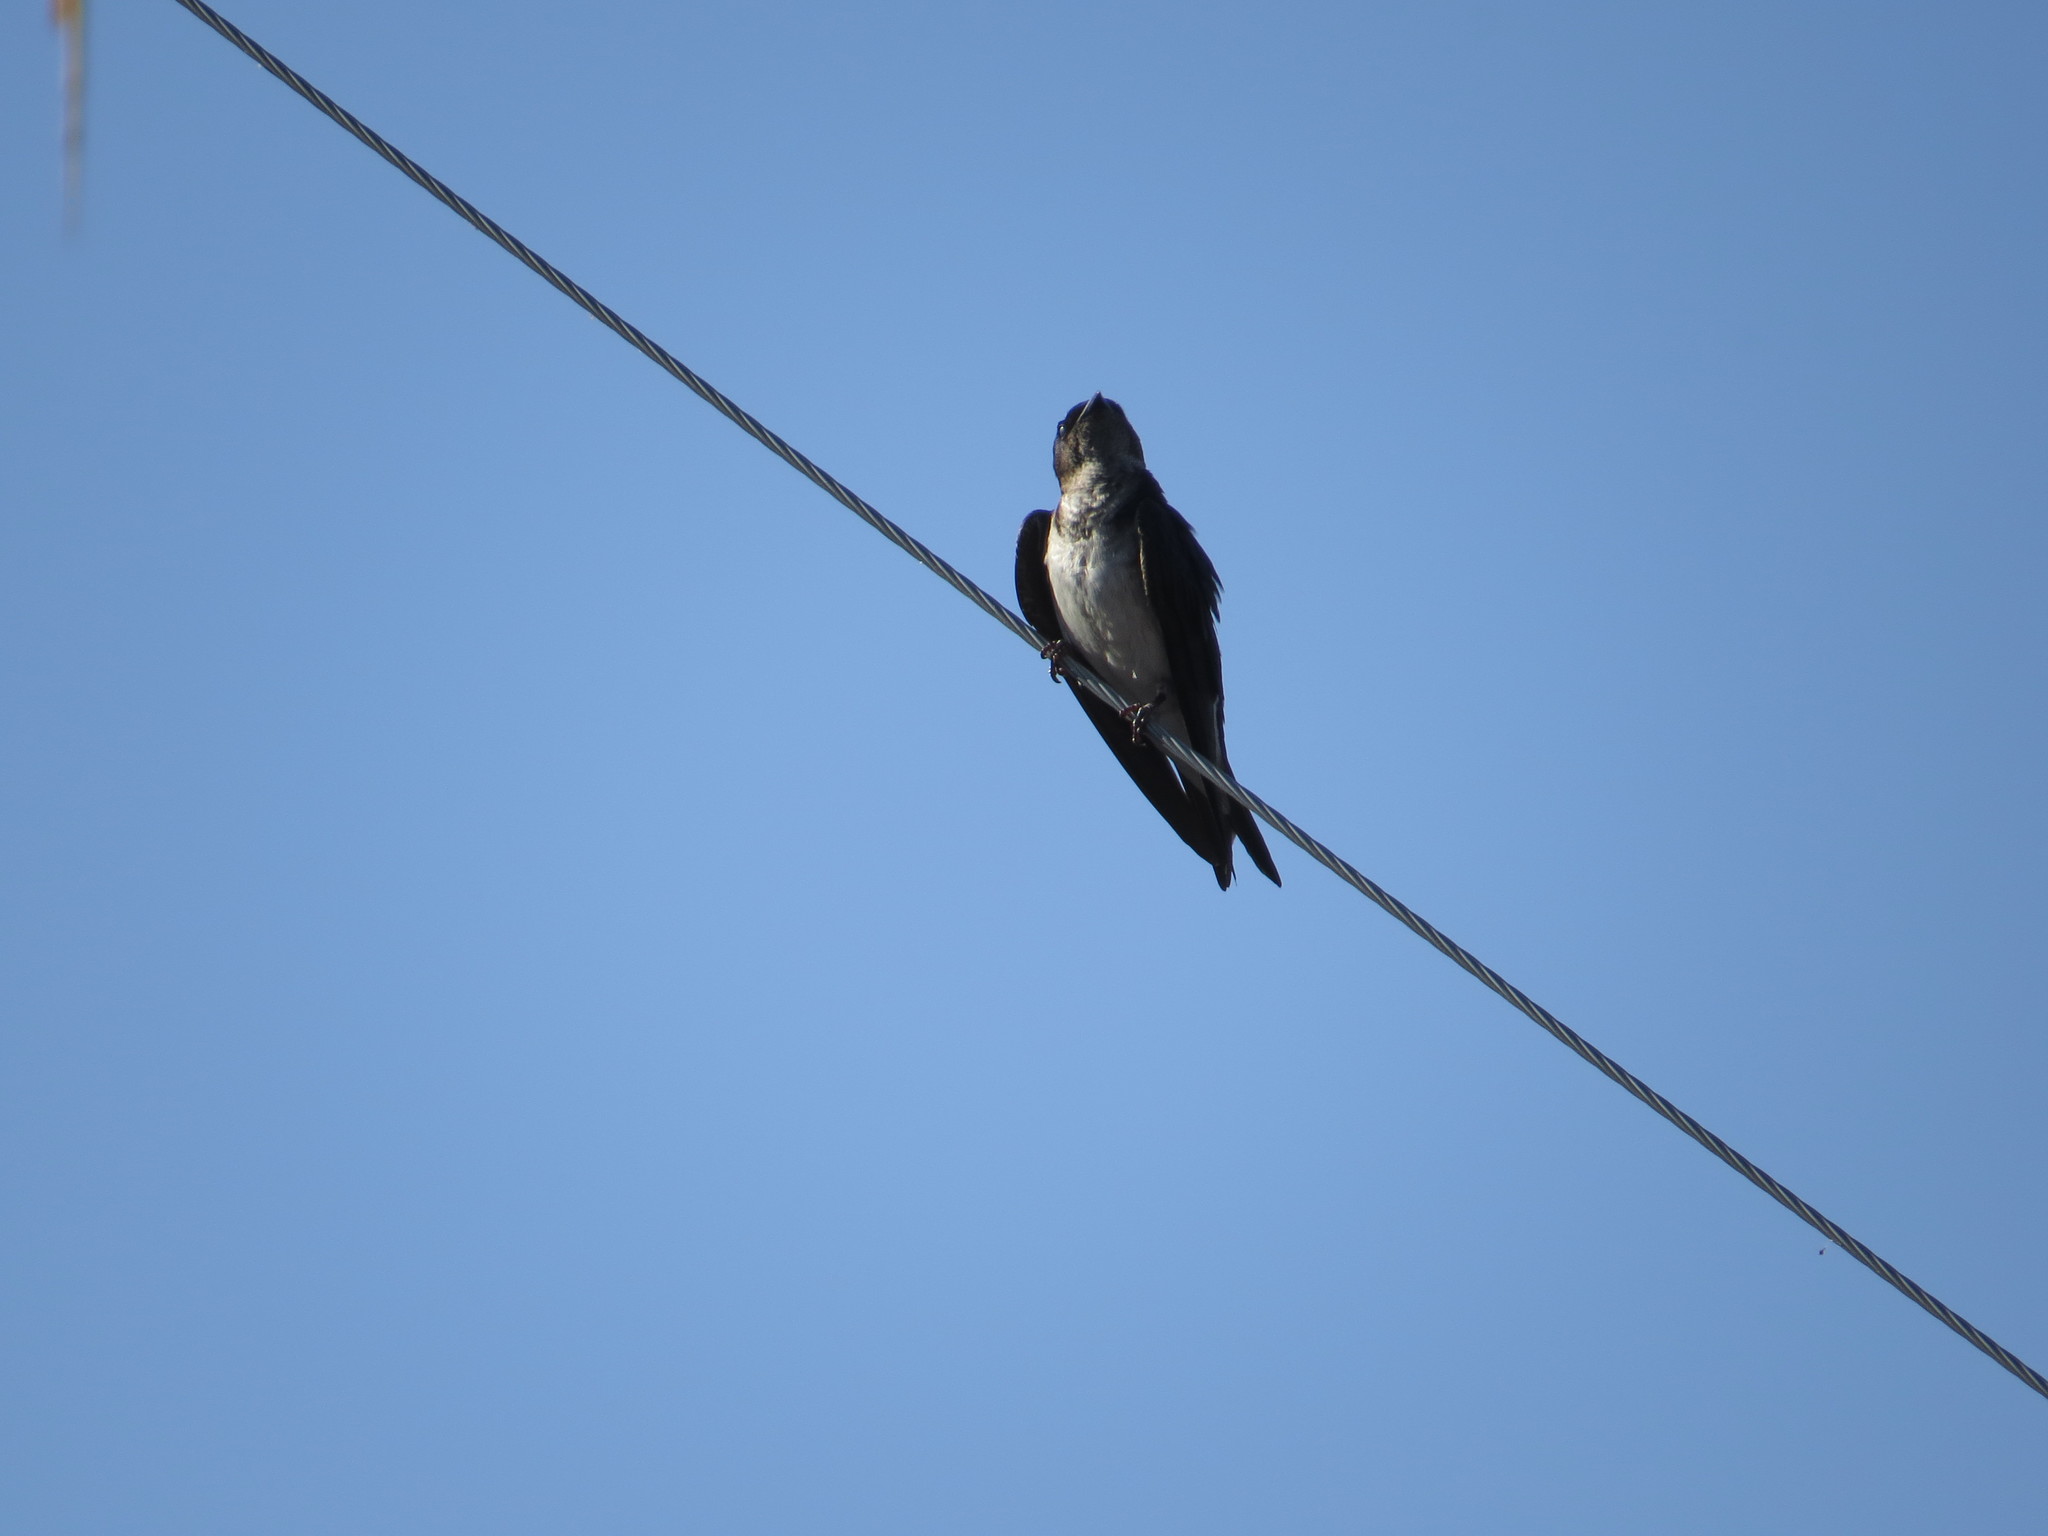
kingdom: Animalia
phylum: Chordata
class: Aves
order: Passeriformes
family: Hirundinidae
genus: Progne
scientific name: Progne chalybea
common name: Grey-breasted martin
